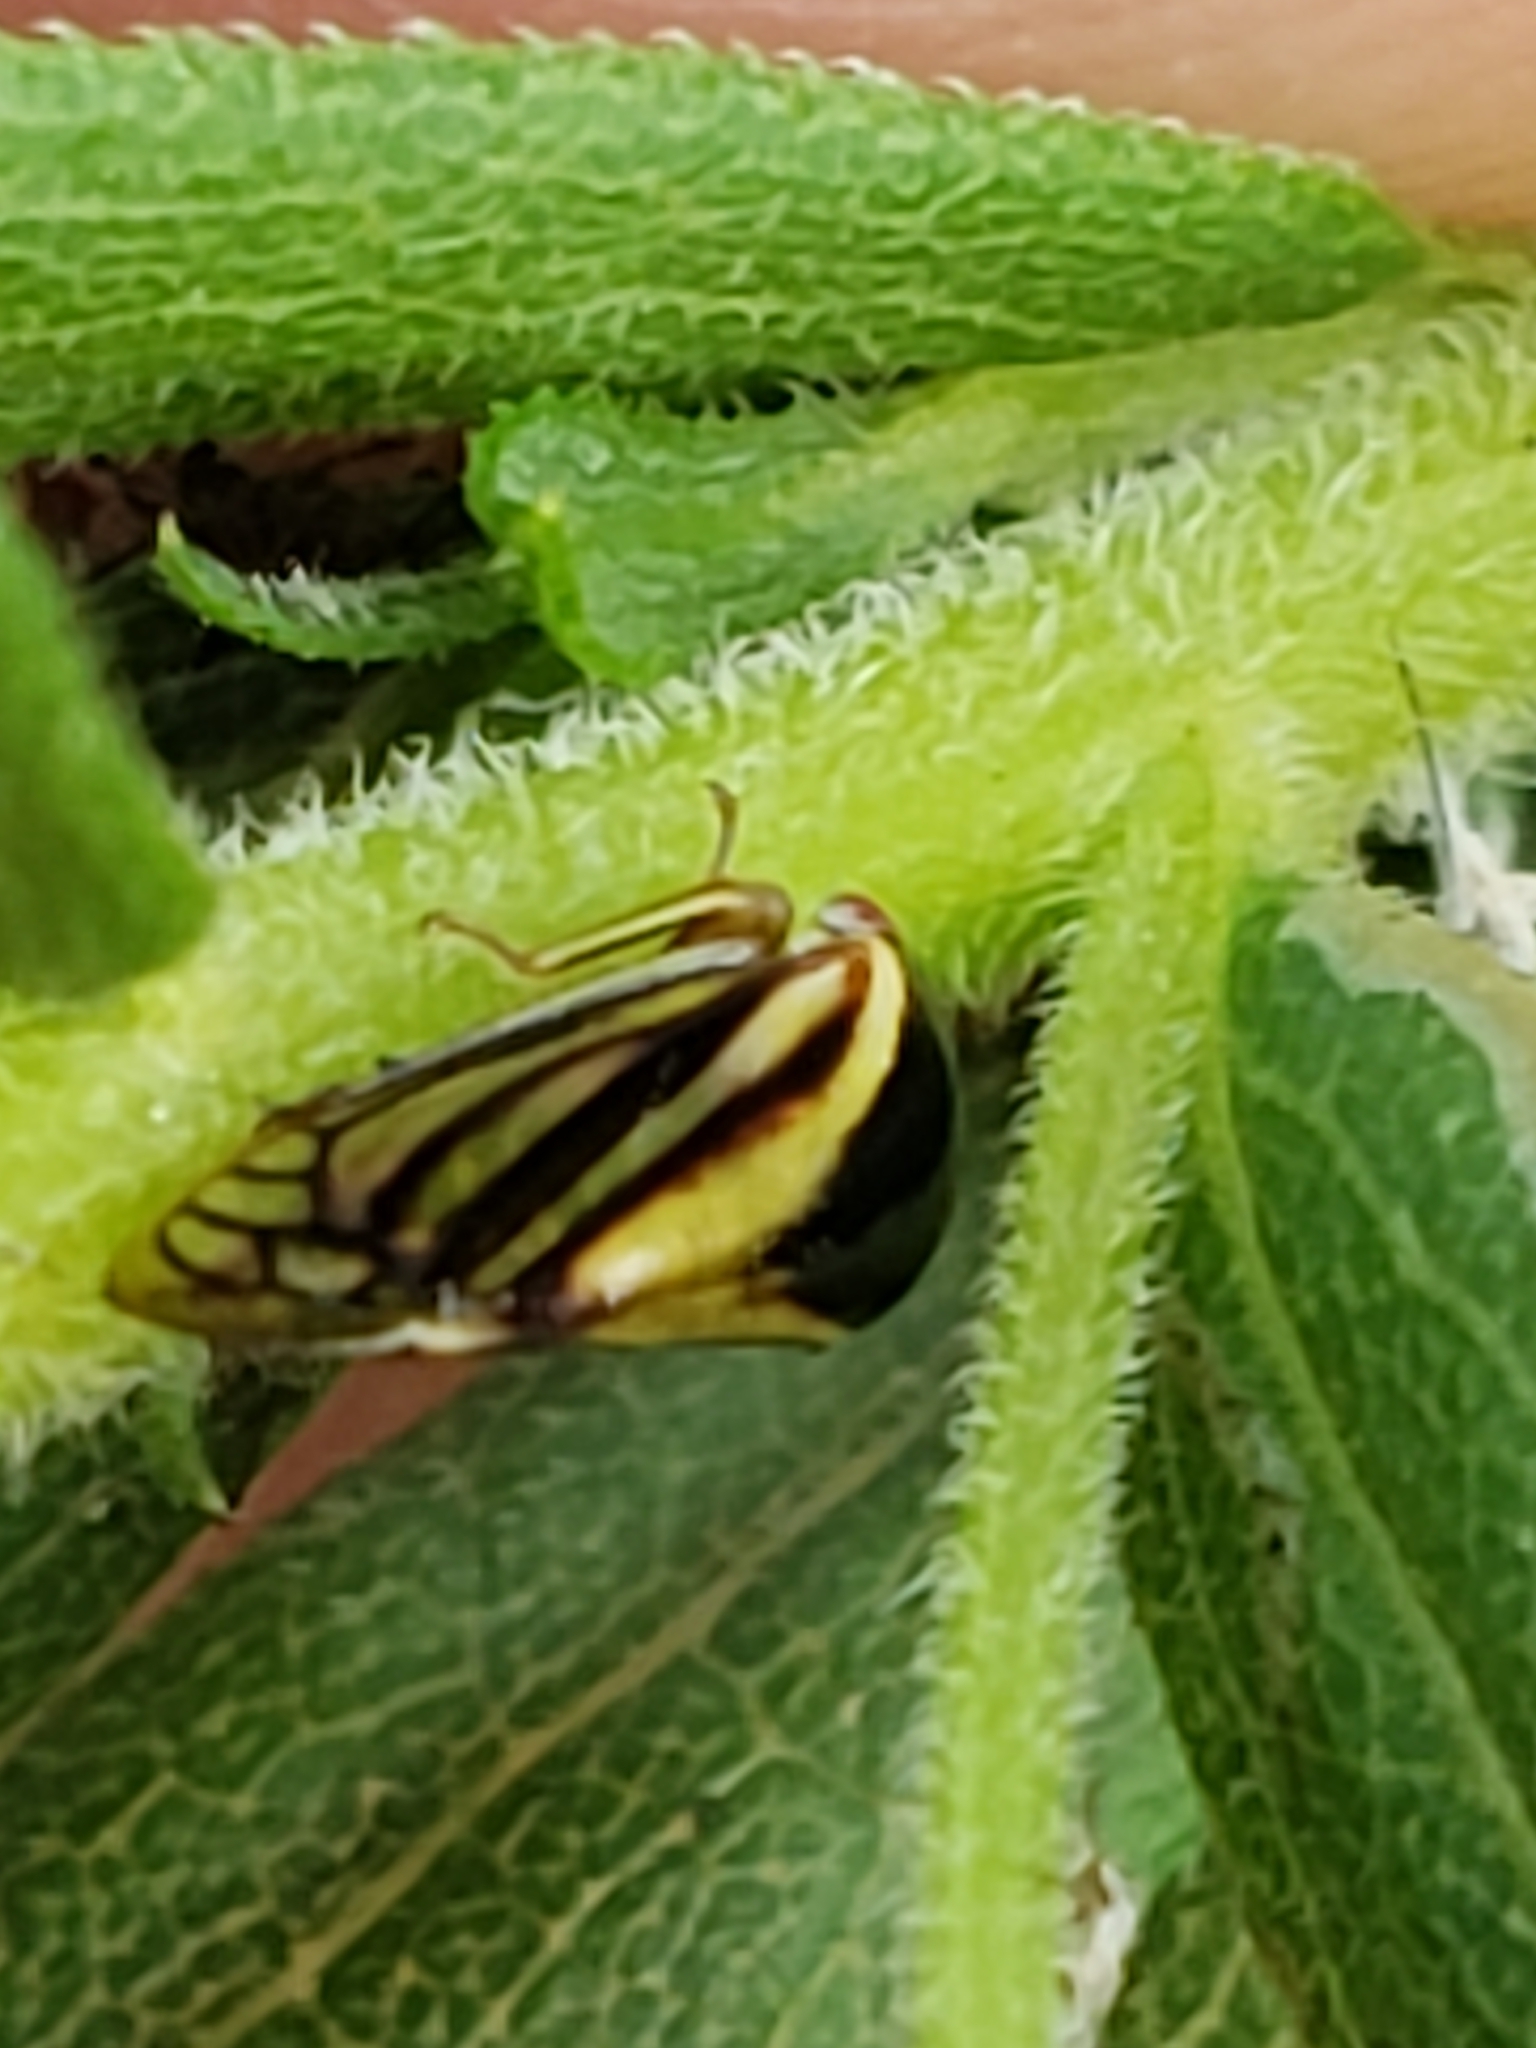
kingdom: Animalia
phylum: Arthropoda
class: Insecta
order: Hemiptera
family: Membracidae
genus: Acutalis
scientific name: Acutalis tartarea
